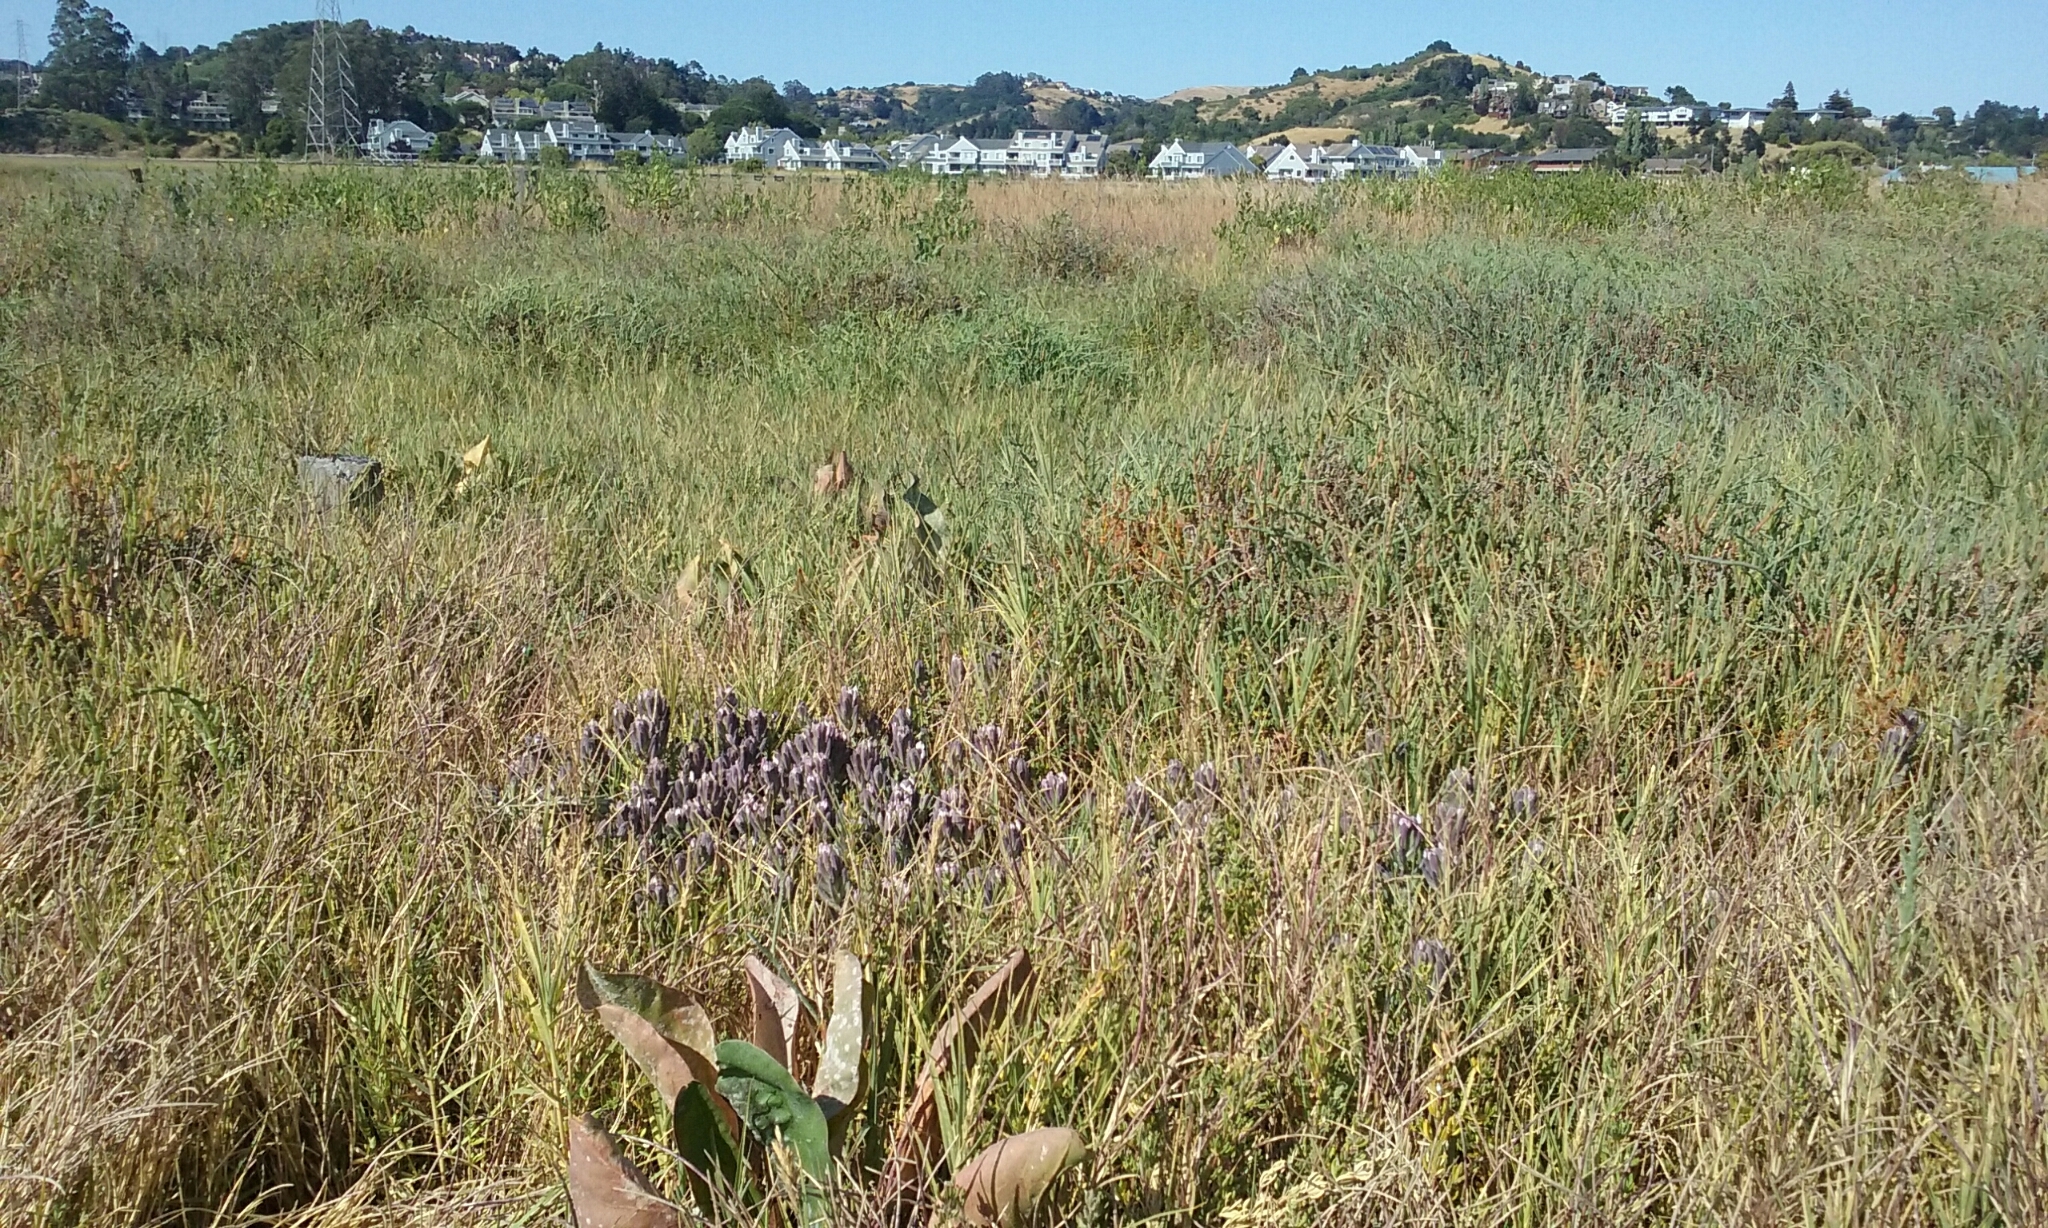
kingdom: Plantae
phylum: Tracheophyta
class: Magnoliopsida
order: Lamiales
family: Orobanchaceae
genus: Chloropyron
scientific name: Chloropyron maritimum
